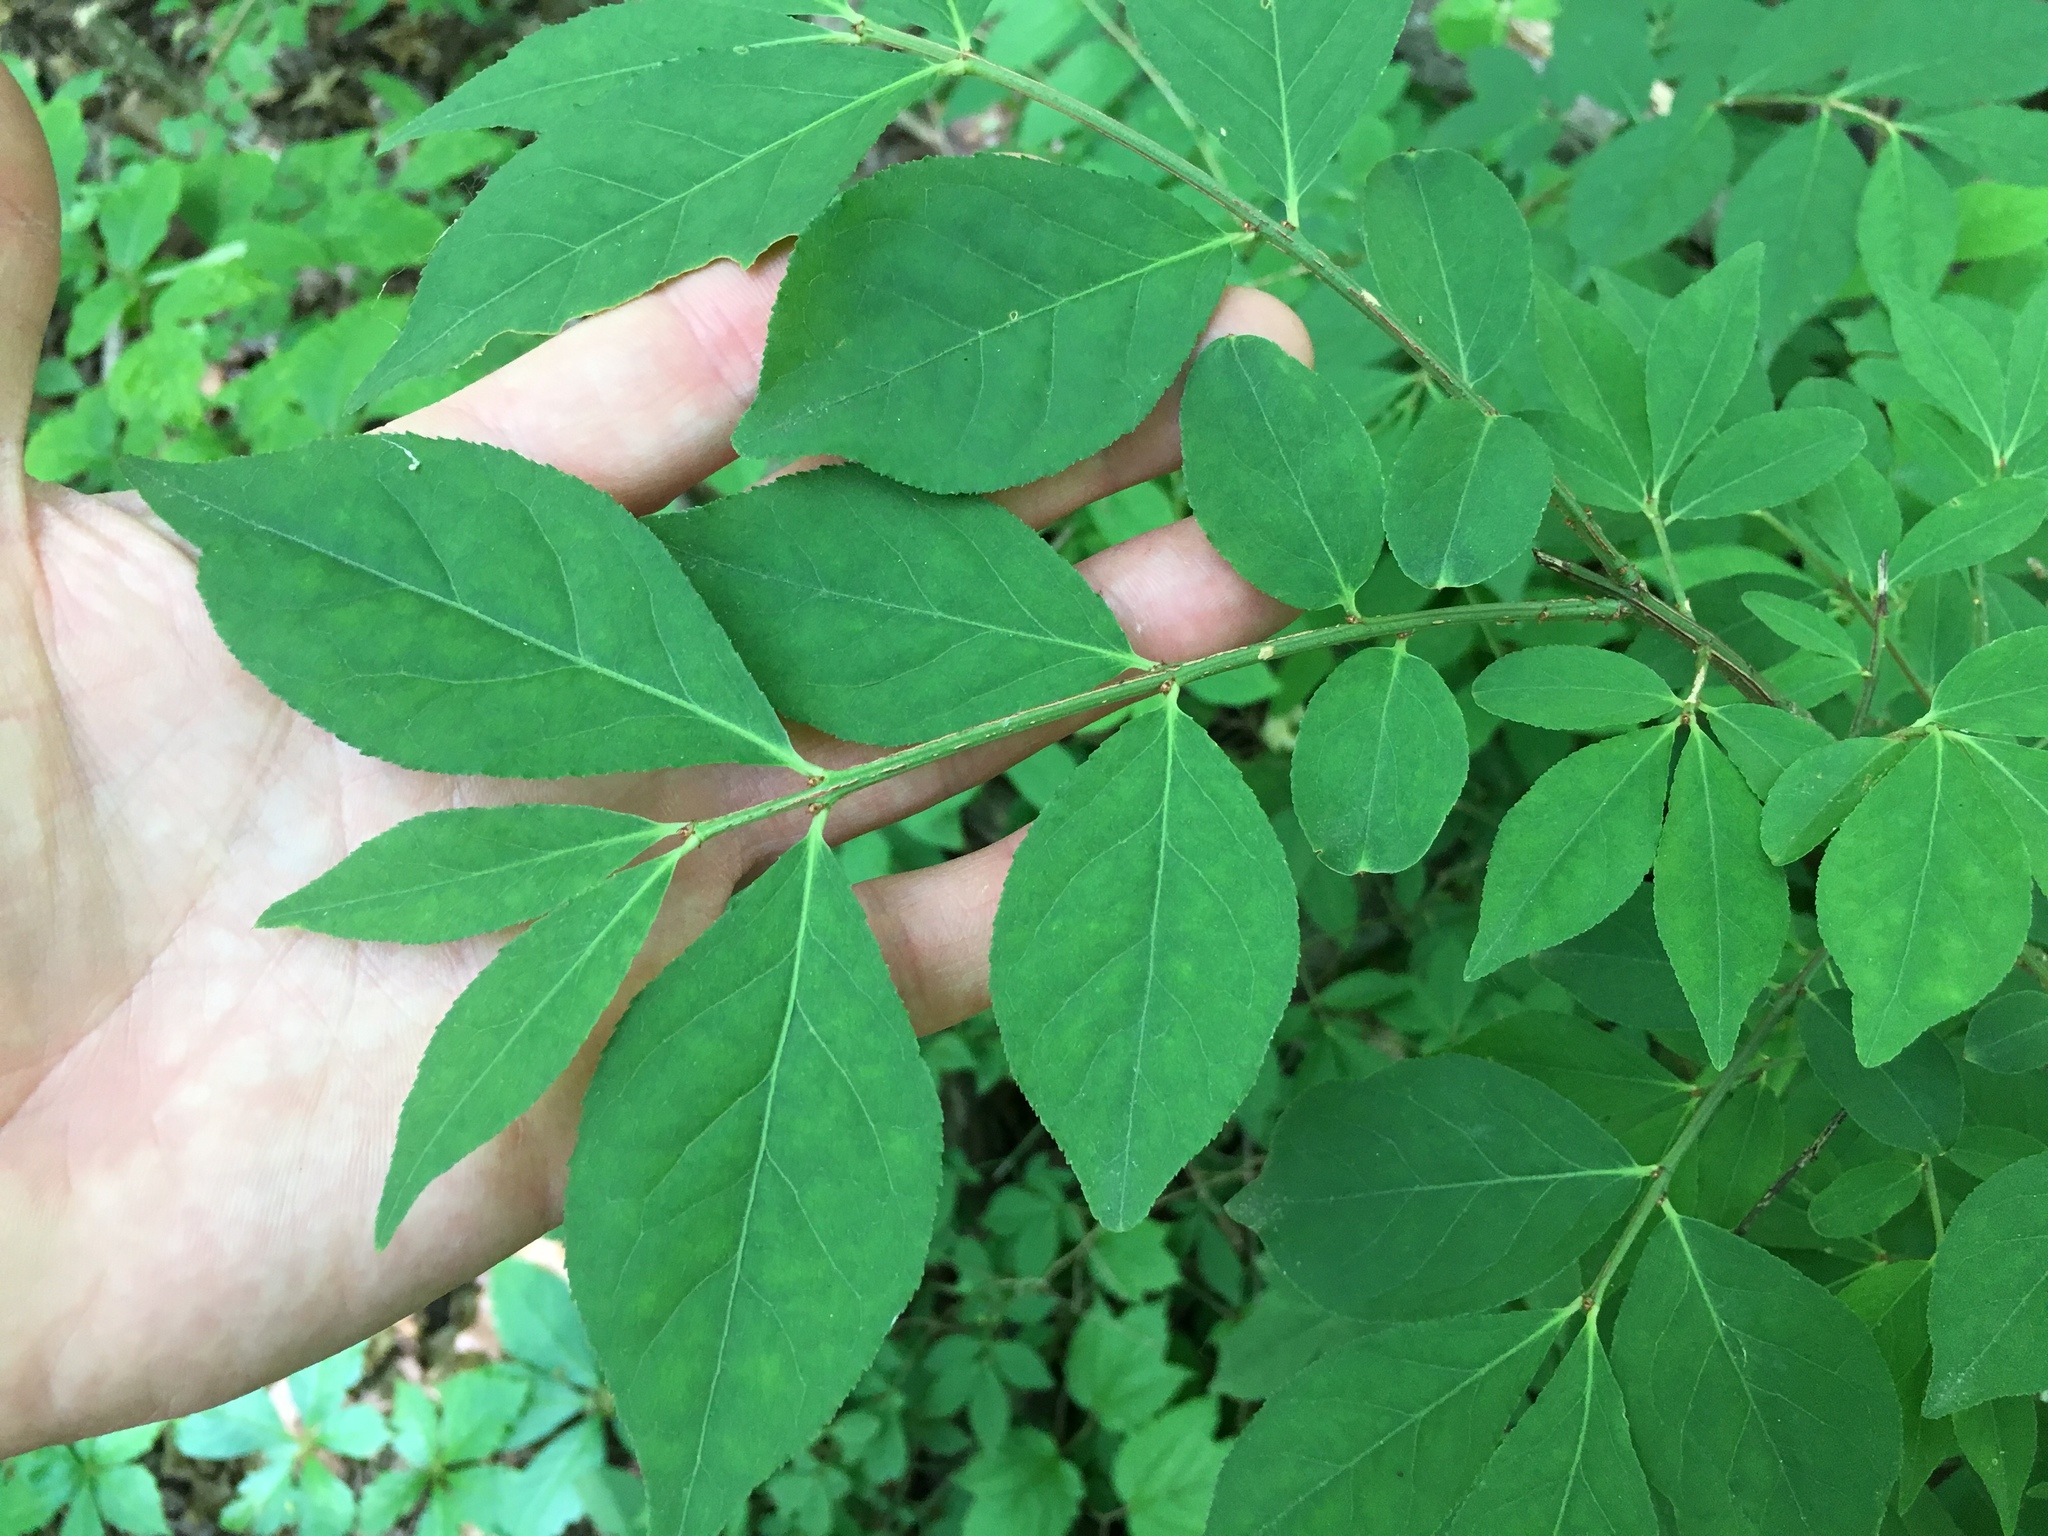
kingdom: Plantae
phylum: Tracheophyta
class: Magnoliopsida
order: Celastrales
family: Celastraceae
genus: Euonymus
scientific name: Euonymus alatus
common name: Winged euonymus
